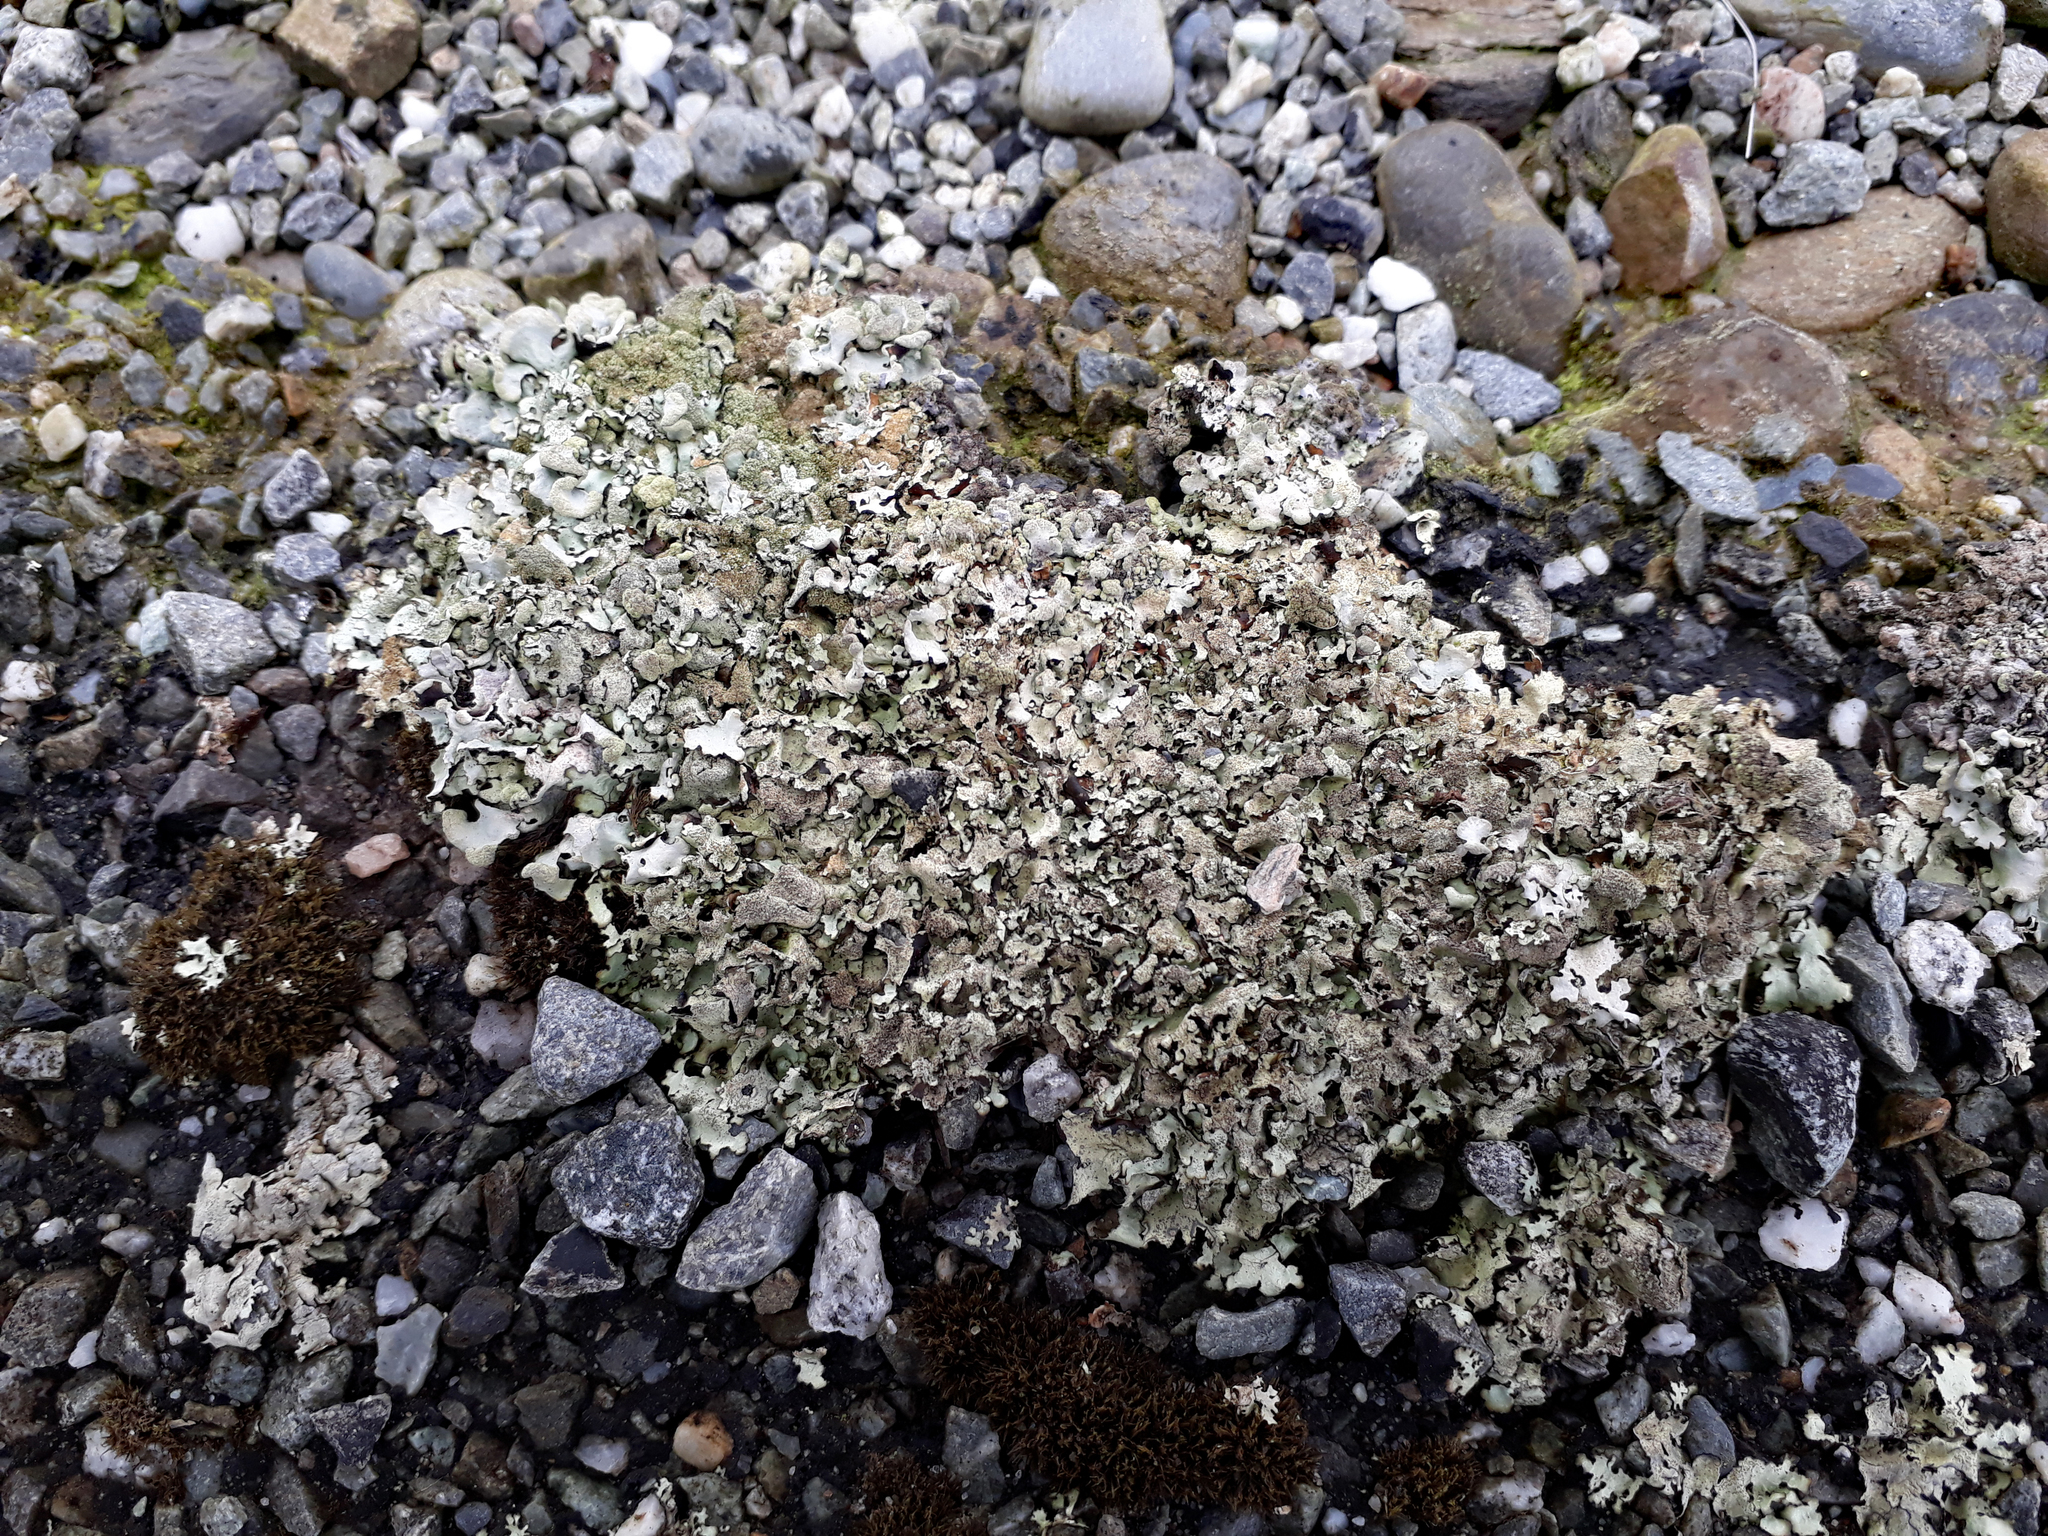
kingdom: Fungi
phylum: Ascomycota
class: Lecanoromycetes
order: Lecanorales
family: Parmeliaceae
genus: Xanthoparmelia
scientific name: Xanthoparmelia scabrosa
